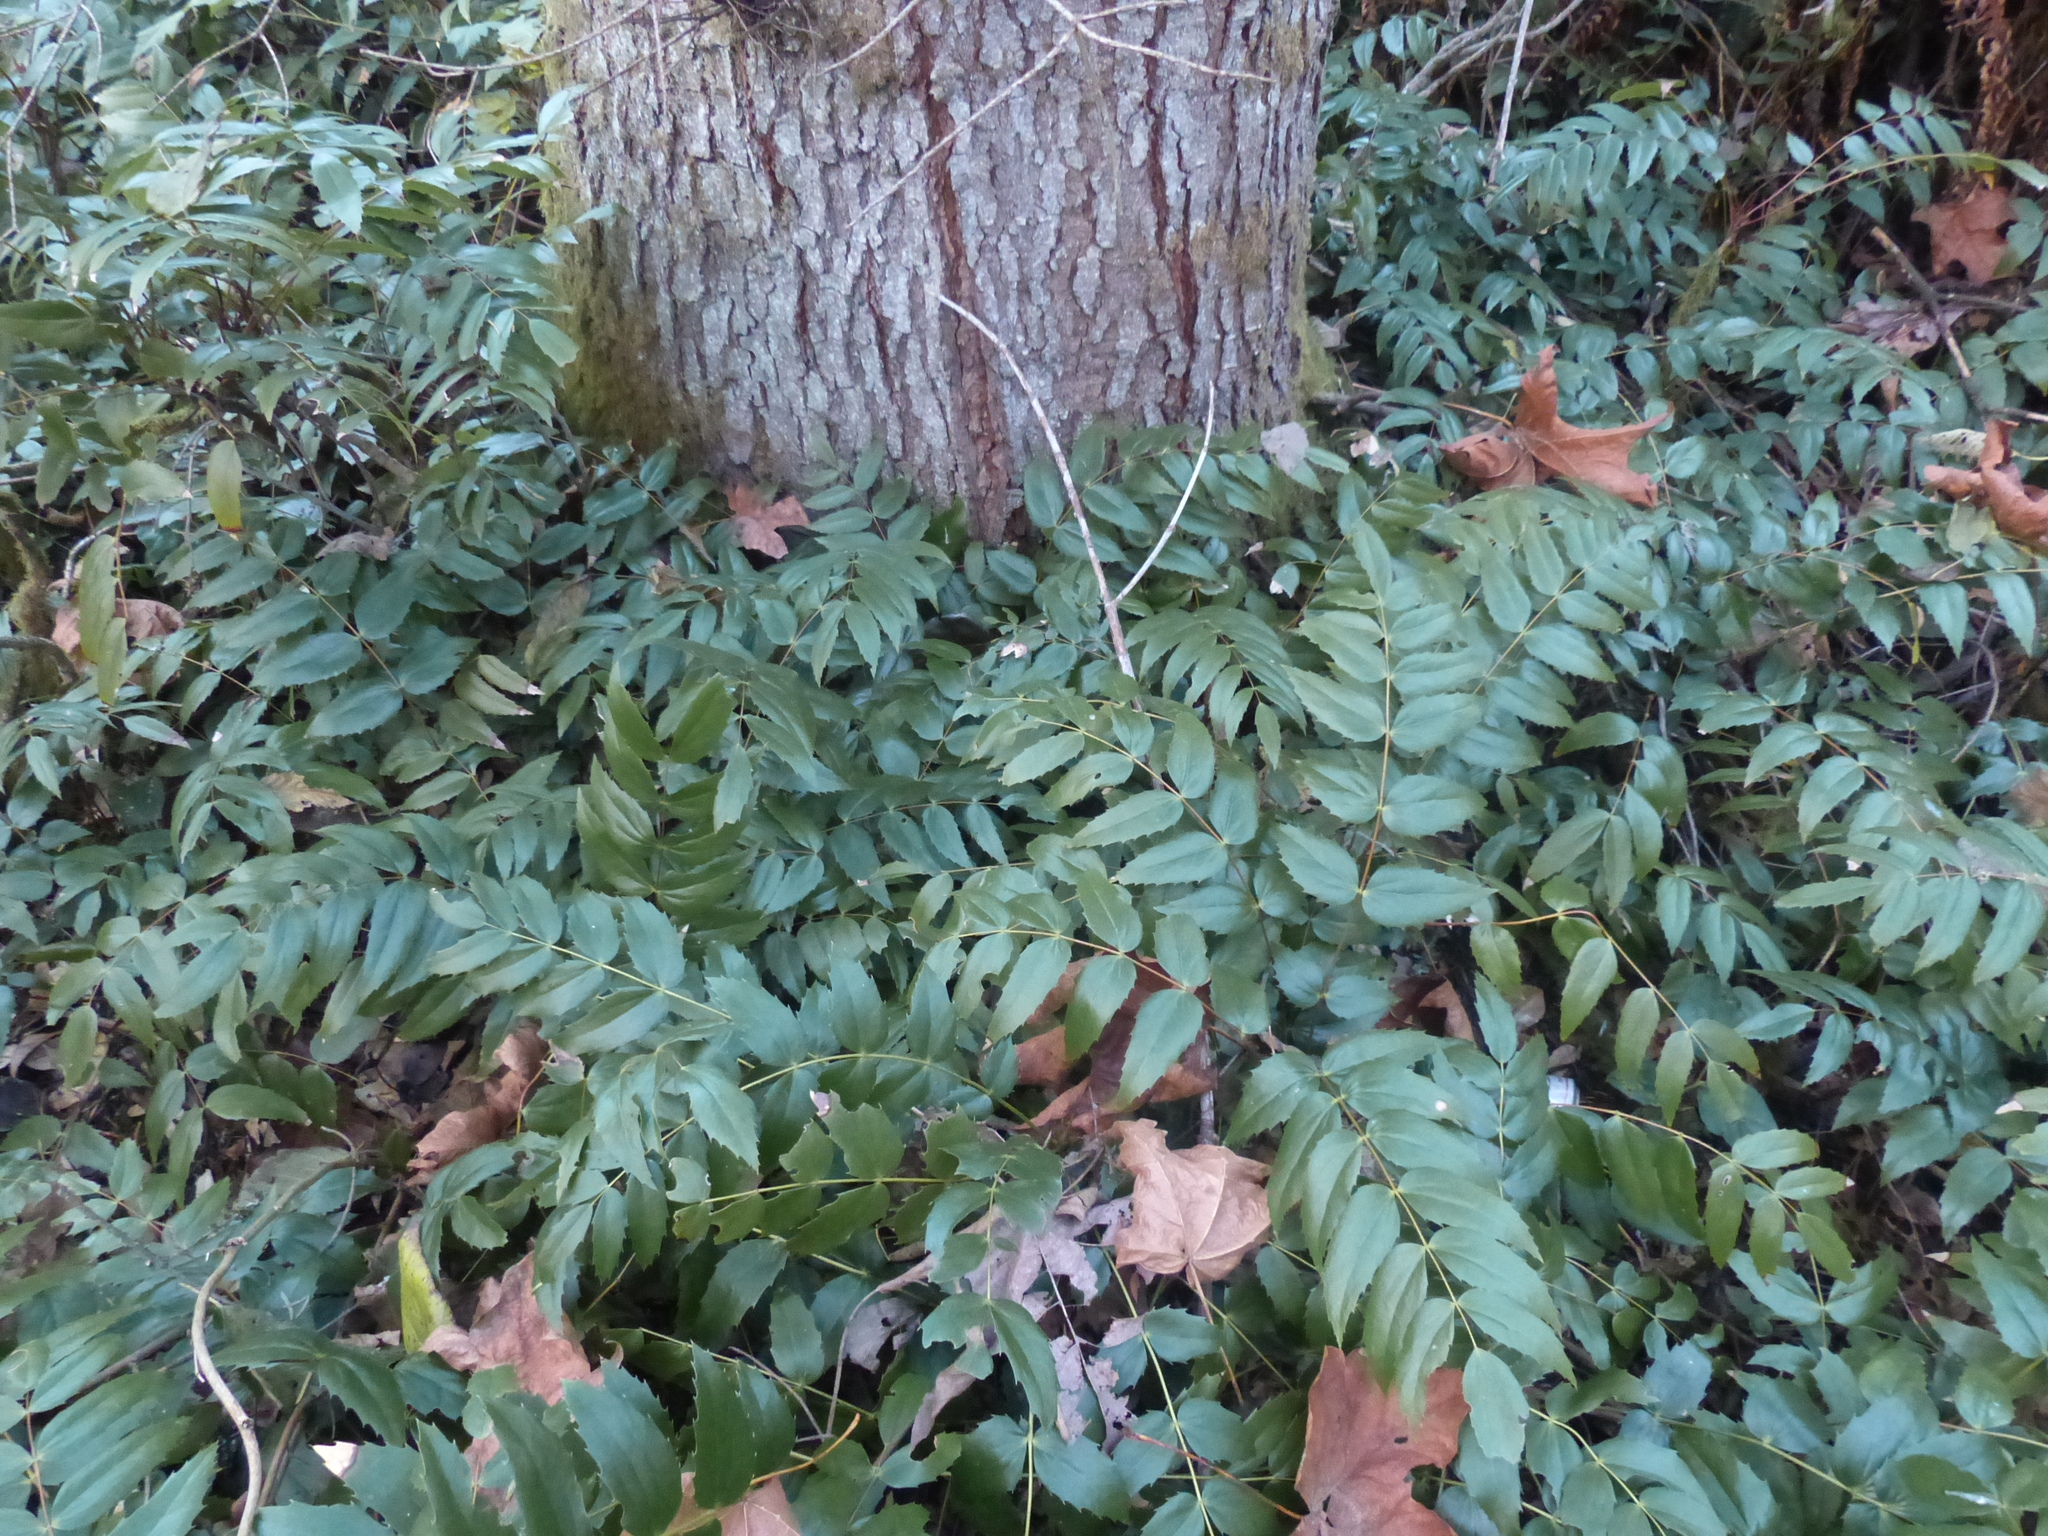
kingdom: Plantae
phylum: Tracheophyta
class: Magnoliopsida
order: Ranunculales
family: Berberidaceae
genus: Mahonia
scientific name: Mahonia nervosa
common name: Cascade oregon-grape
